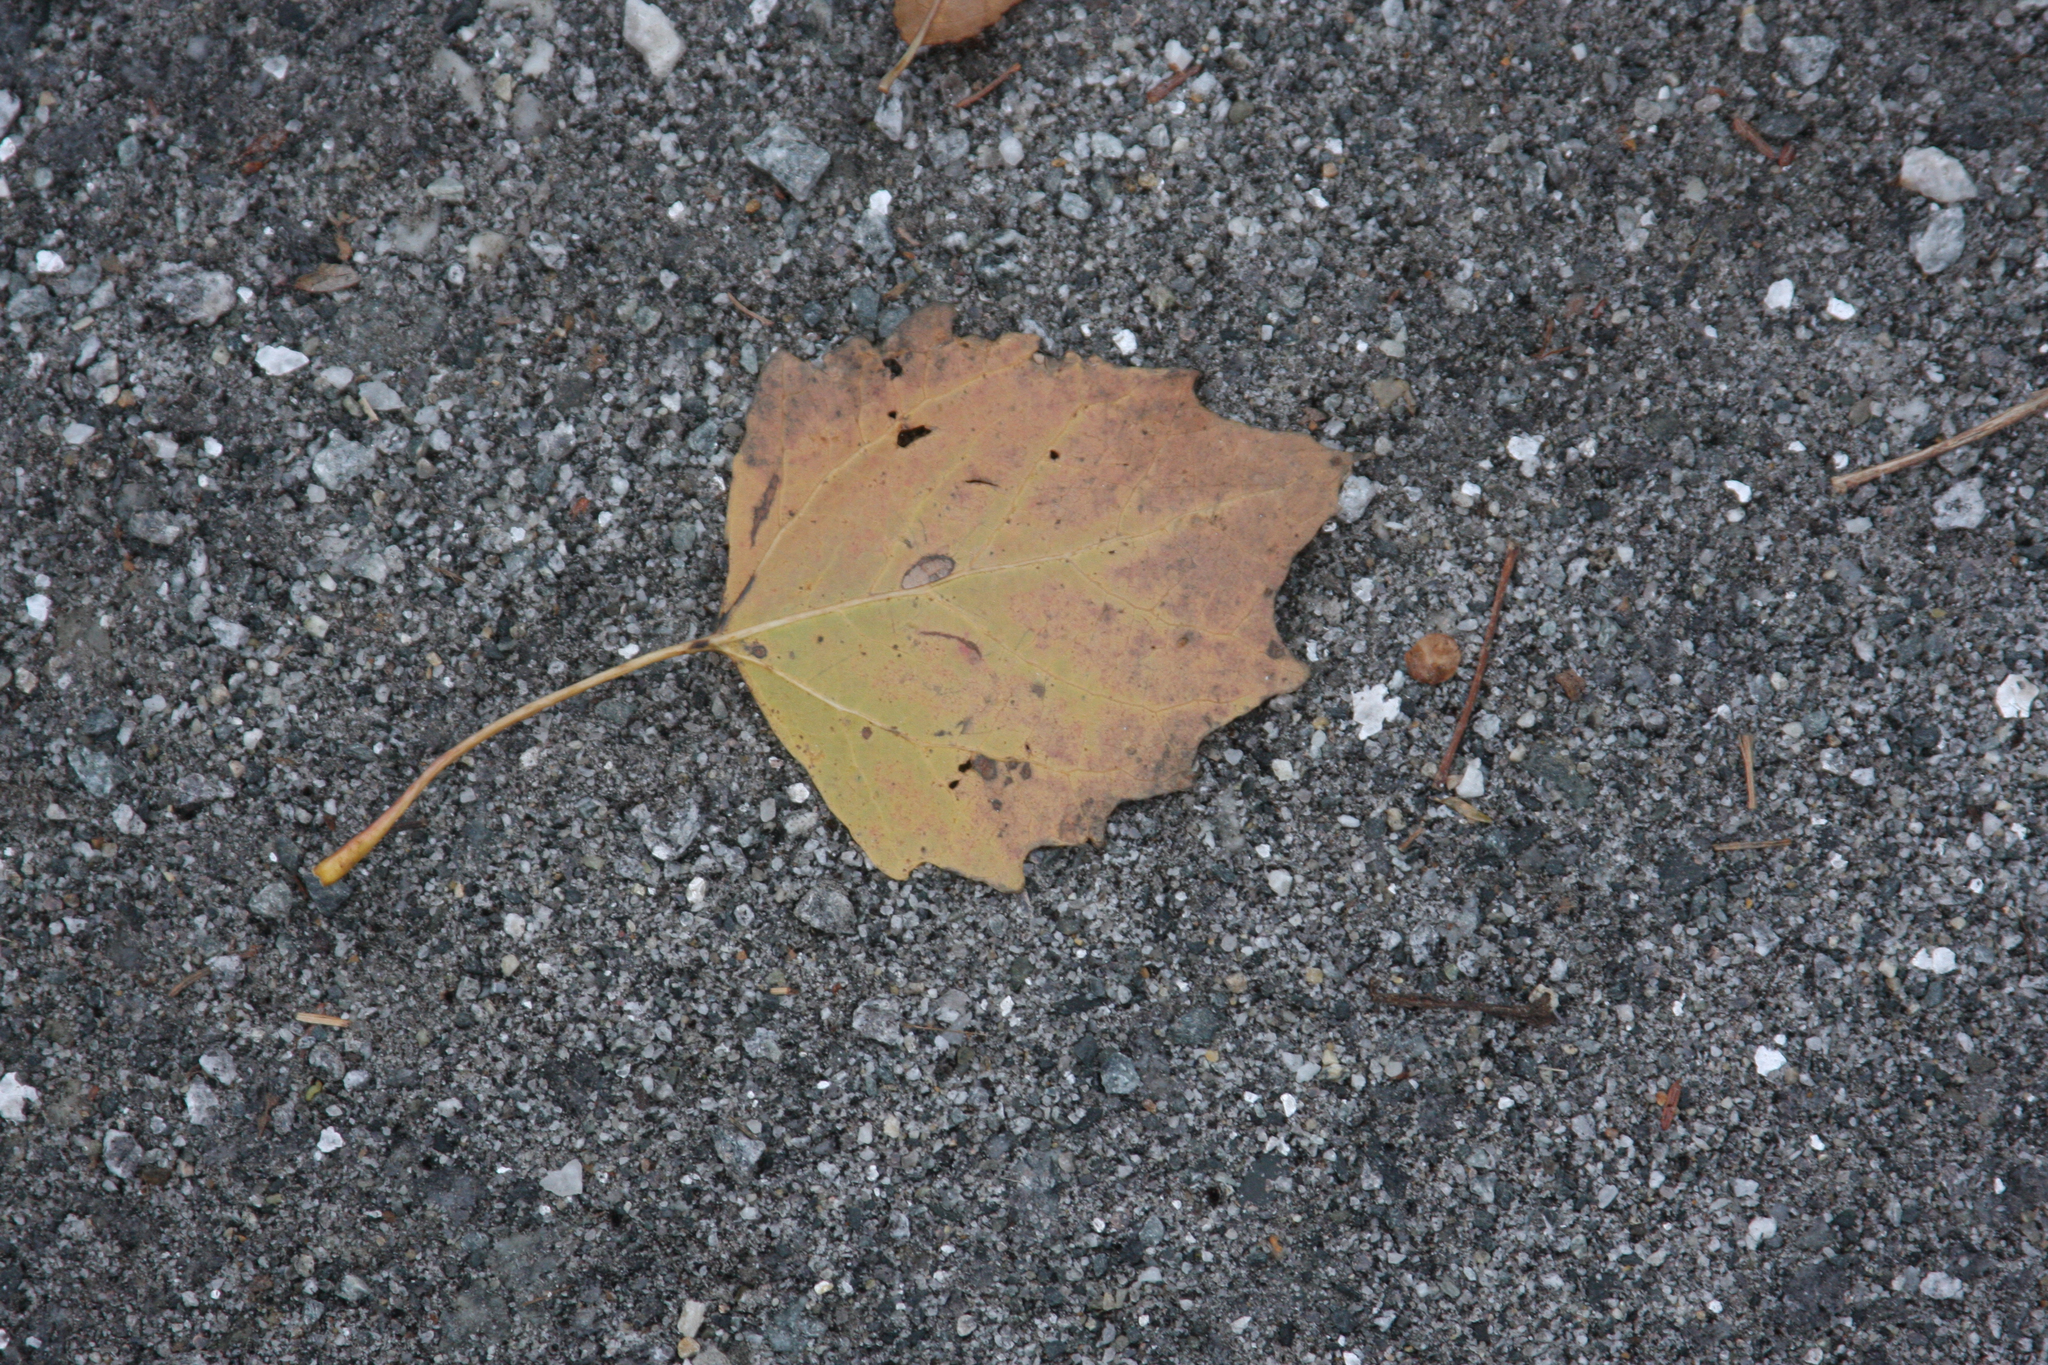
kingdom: Plantae
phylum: Tracheophyta
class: Magnoliopsida
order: Malpighiales
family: Salicaceae
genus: Populus
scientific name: Populus grandidentata
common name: Bigtooth aspen
